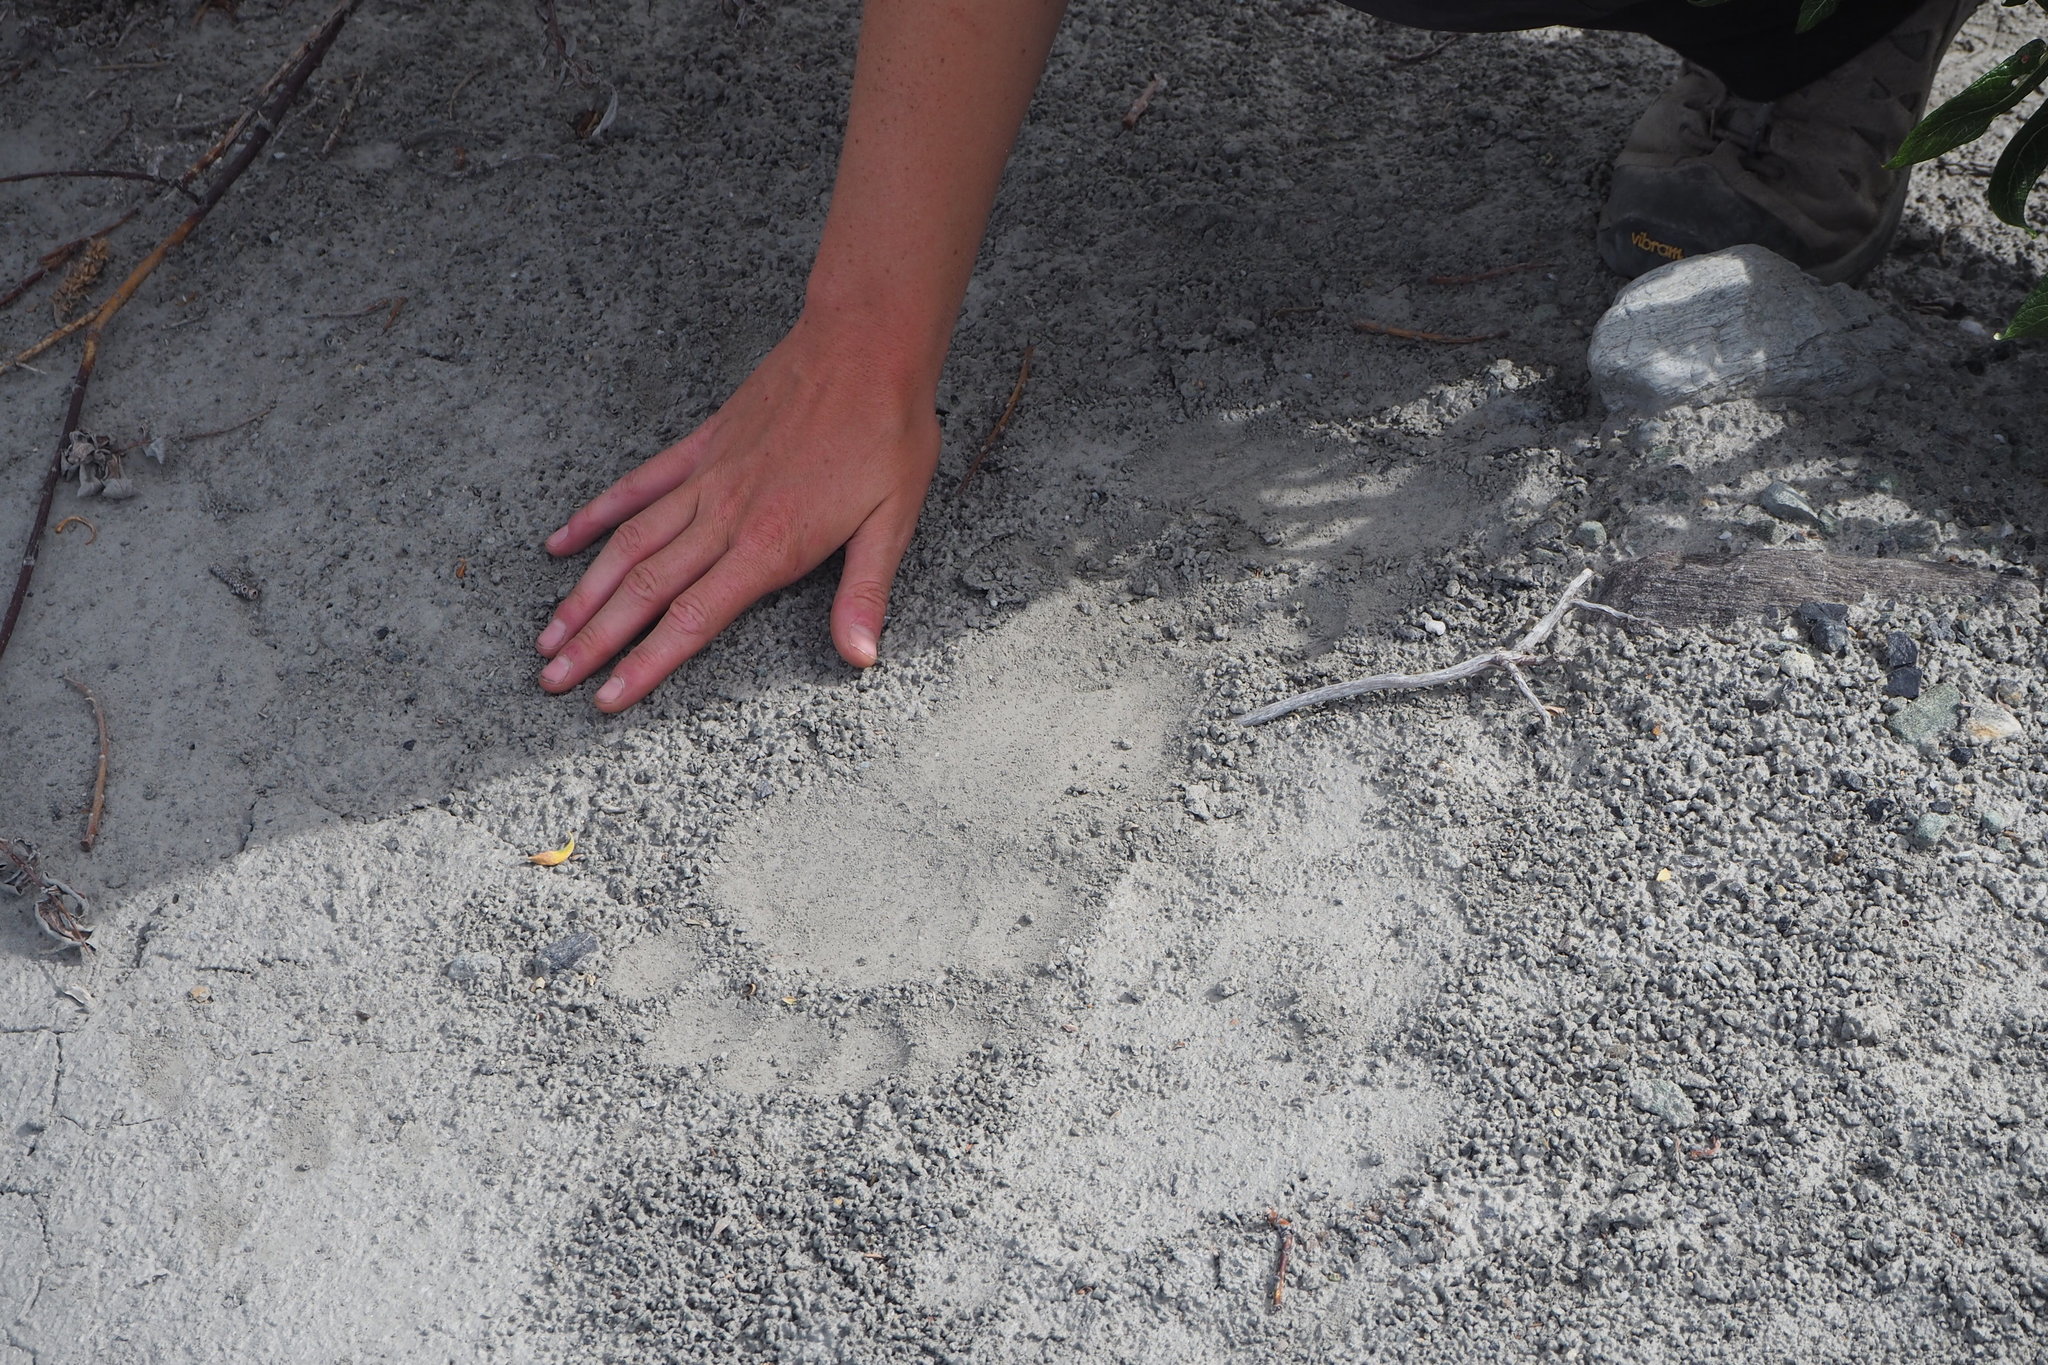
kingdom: Animalia
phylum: Chordata
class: Mammalia
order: Carnivora
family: Ursidae
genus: Ursus
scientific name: Ursus arctos
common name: Brown bear
